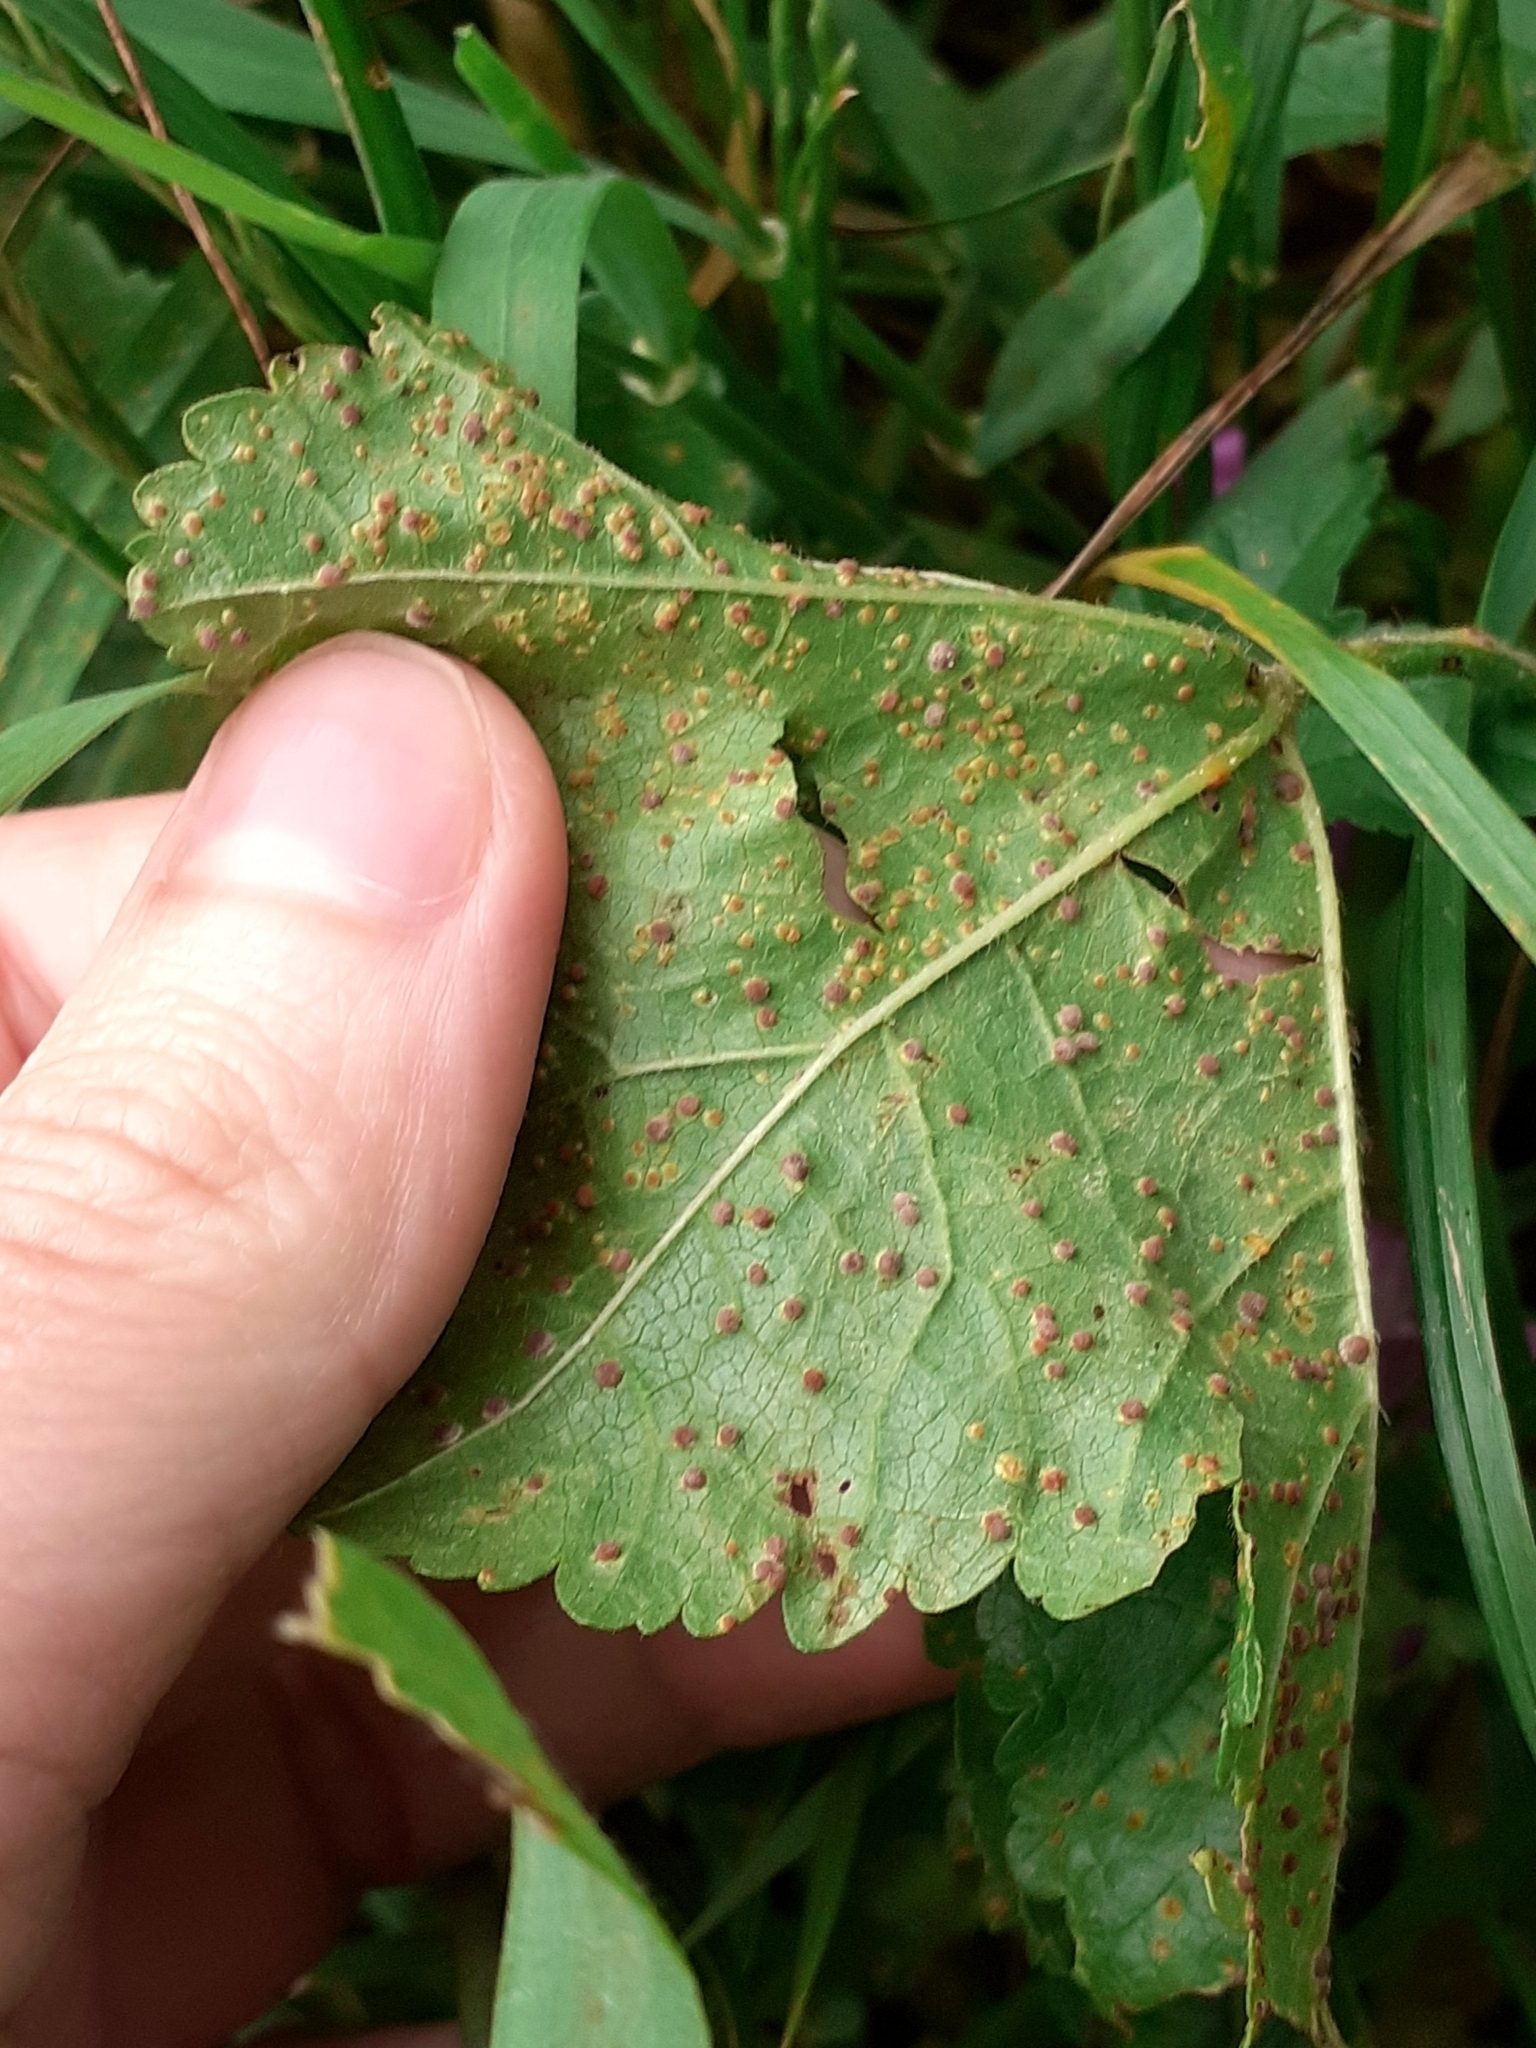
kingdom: Fungi
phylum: Basidiomycota
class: Pucciniomycetes
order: Pucciniales
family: Pucciniaceae
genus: Puccinia
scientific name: Puccinia malvacearum
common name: Hollyhock rust
